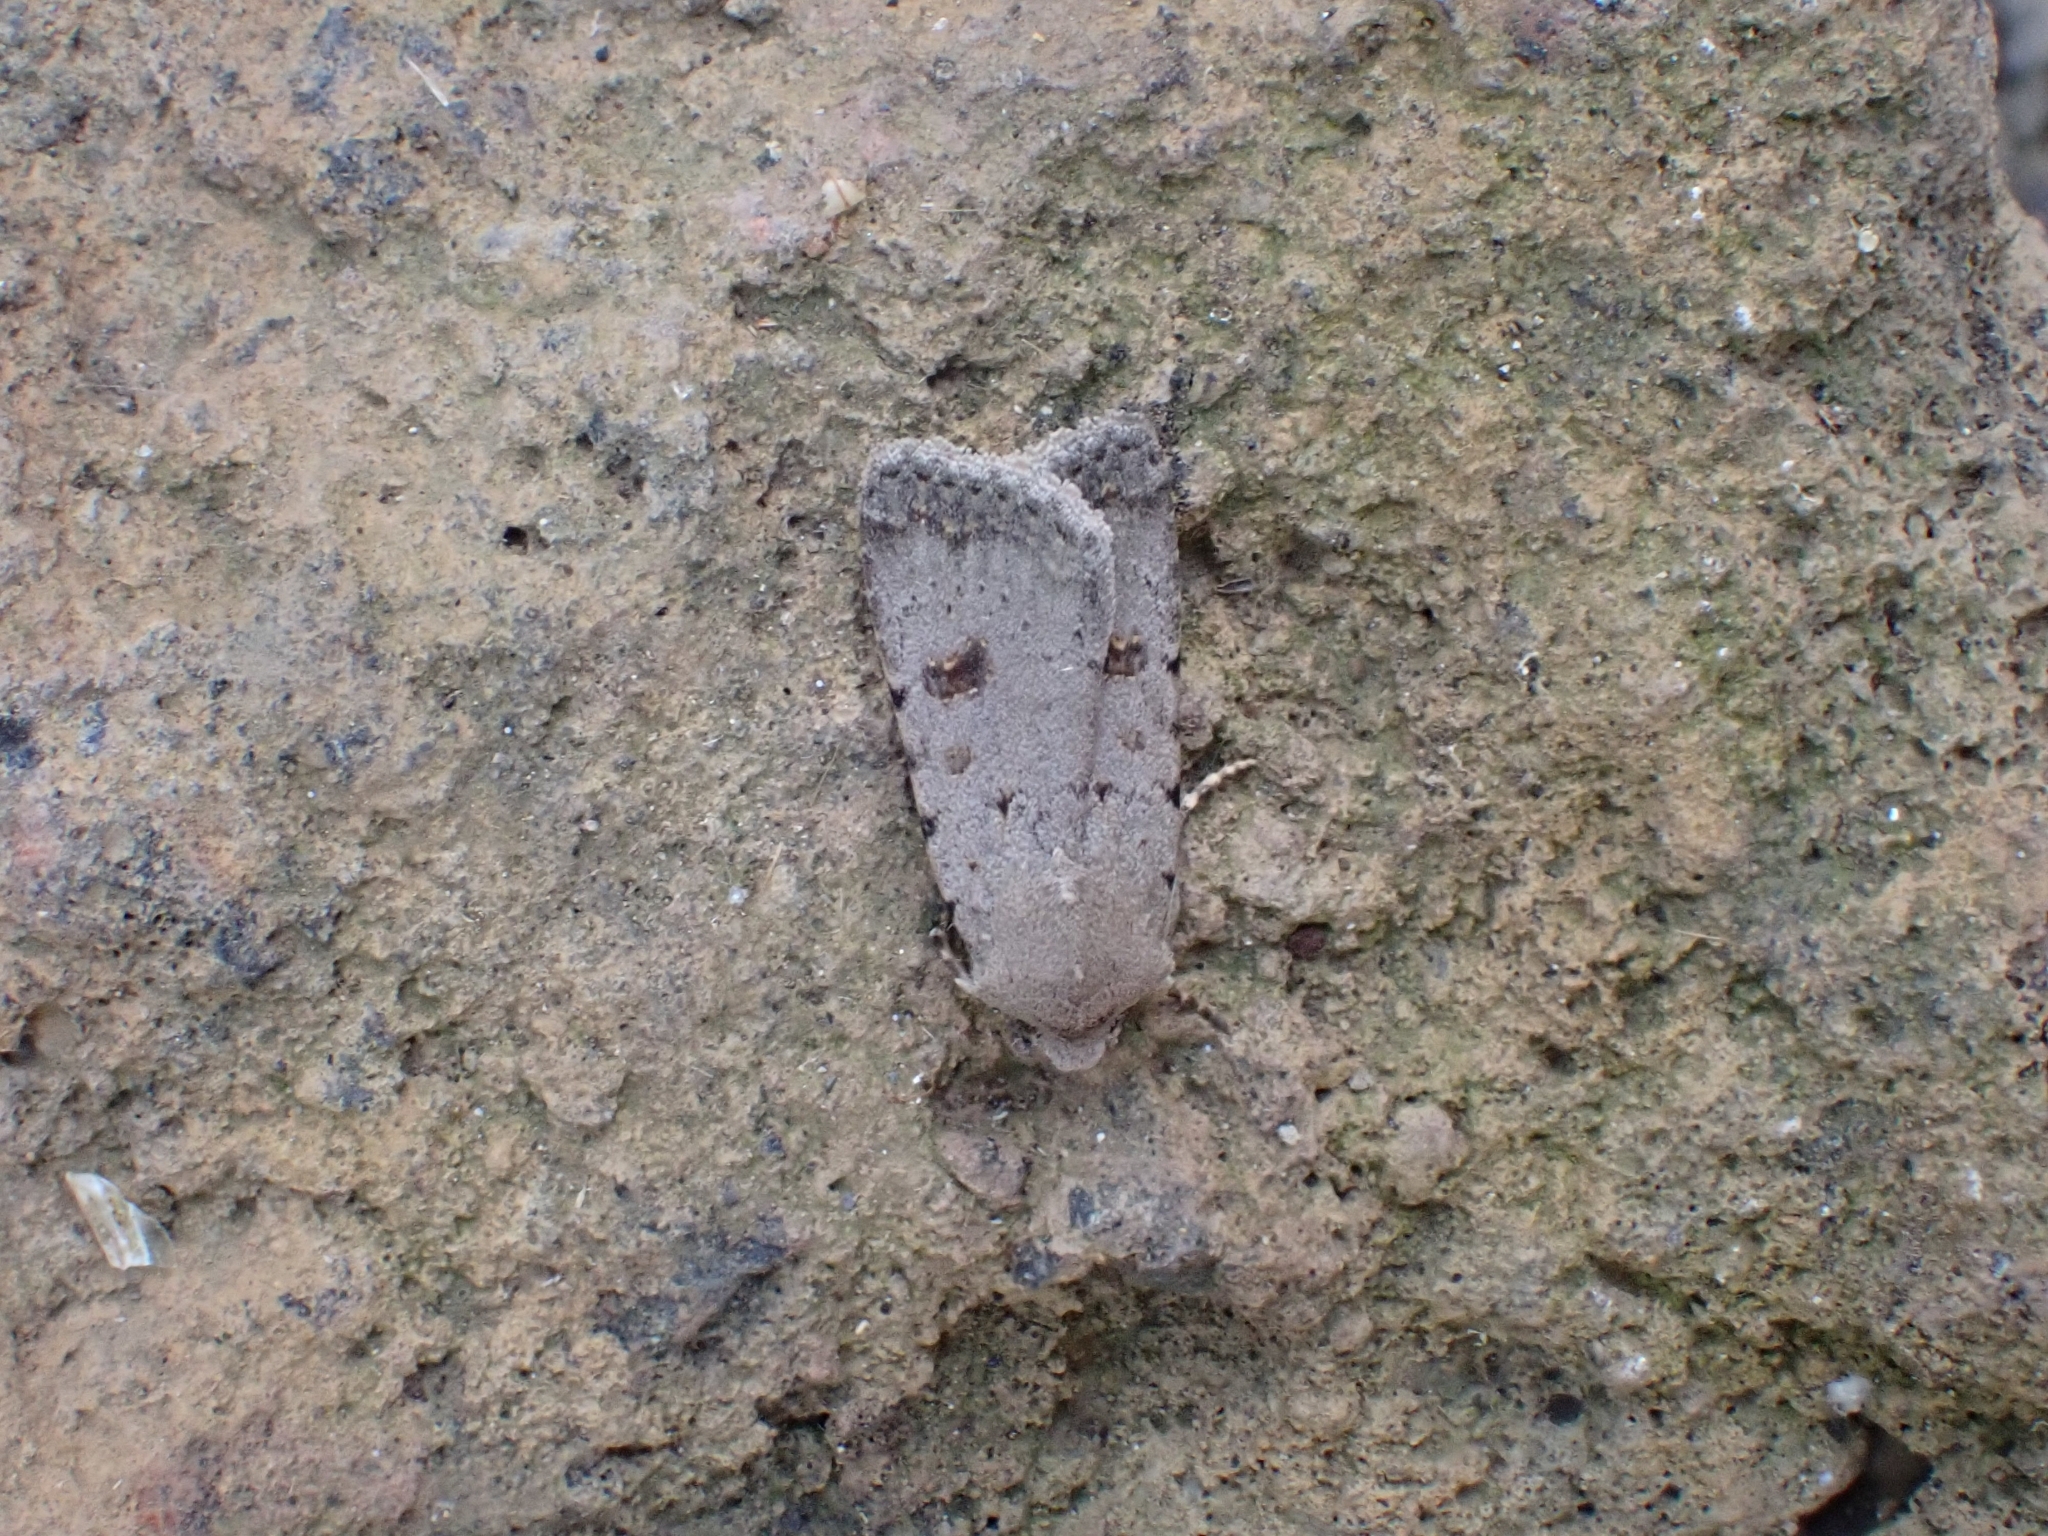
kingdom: Animalia
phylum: Arthropoda
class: Insecta
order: Lepidoptera
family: Noctuidae
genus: Caradrina
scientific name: Caradrina rebeli
